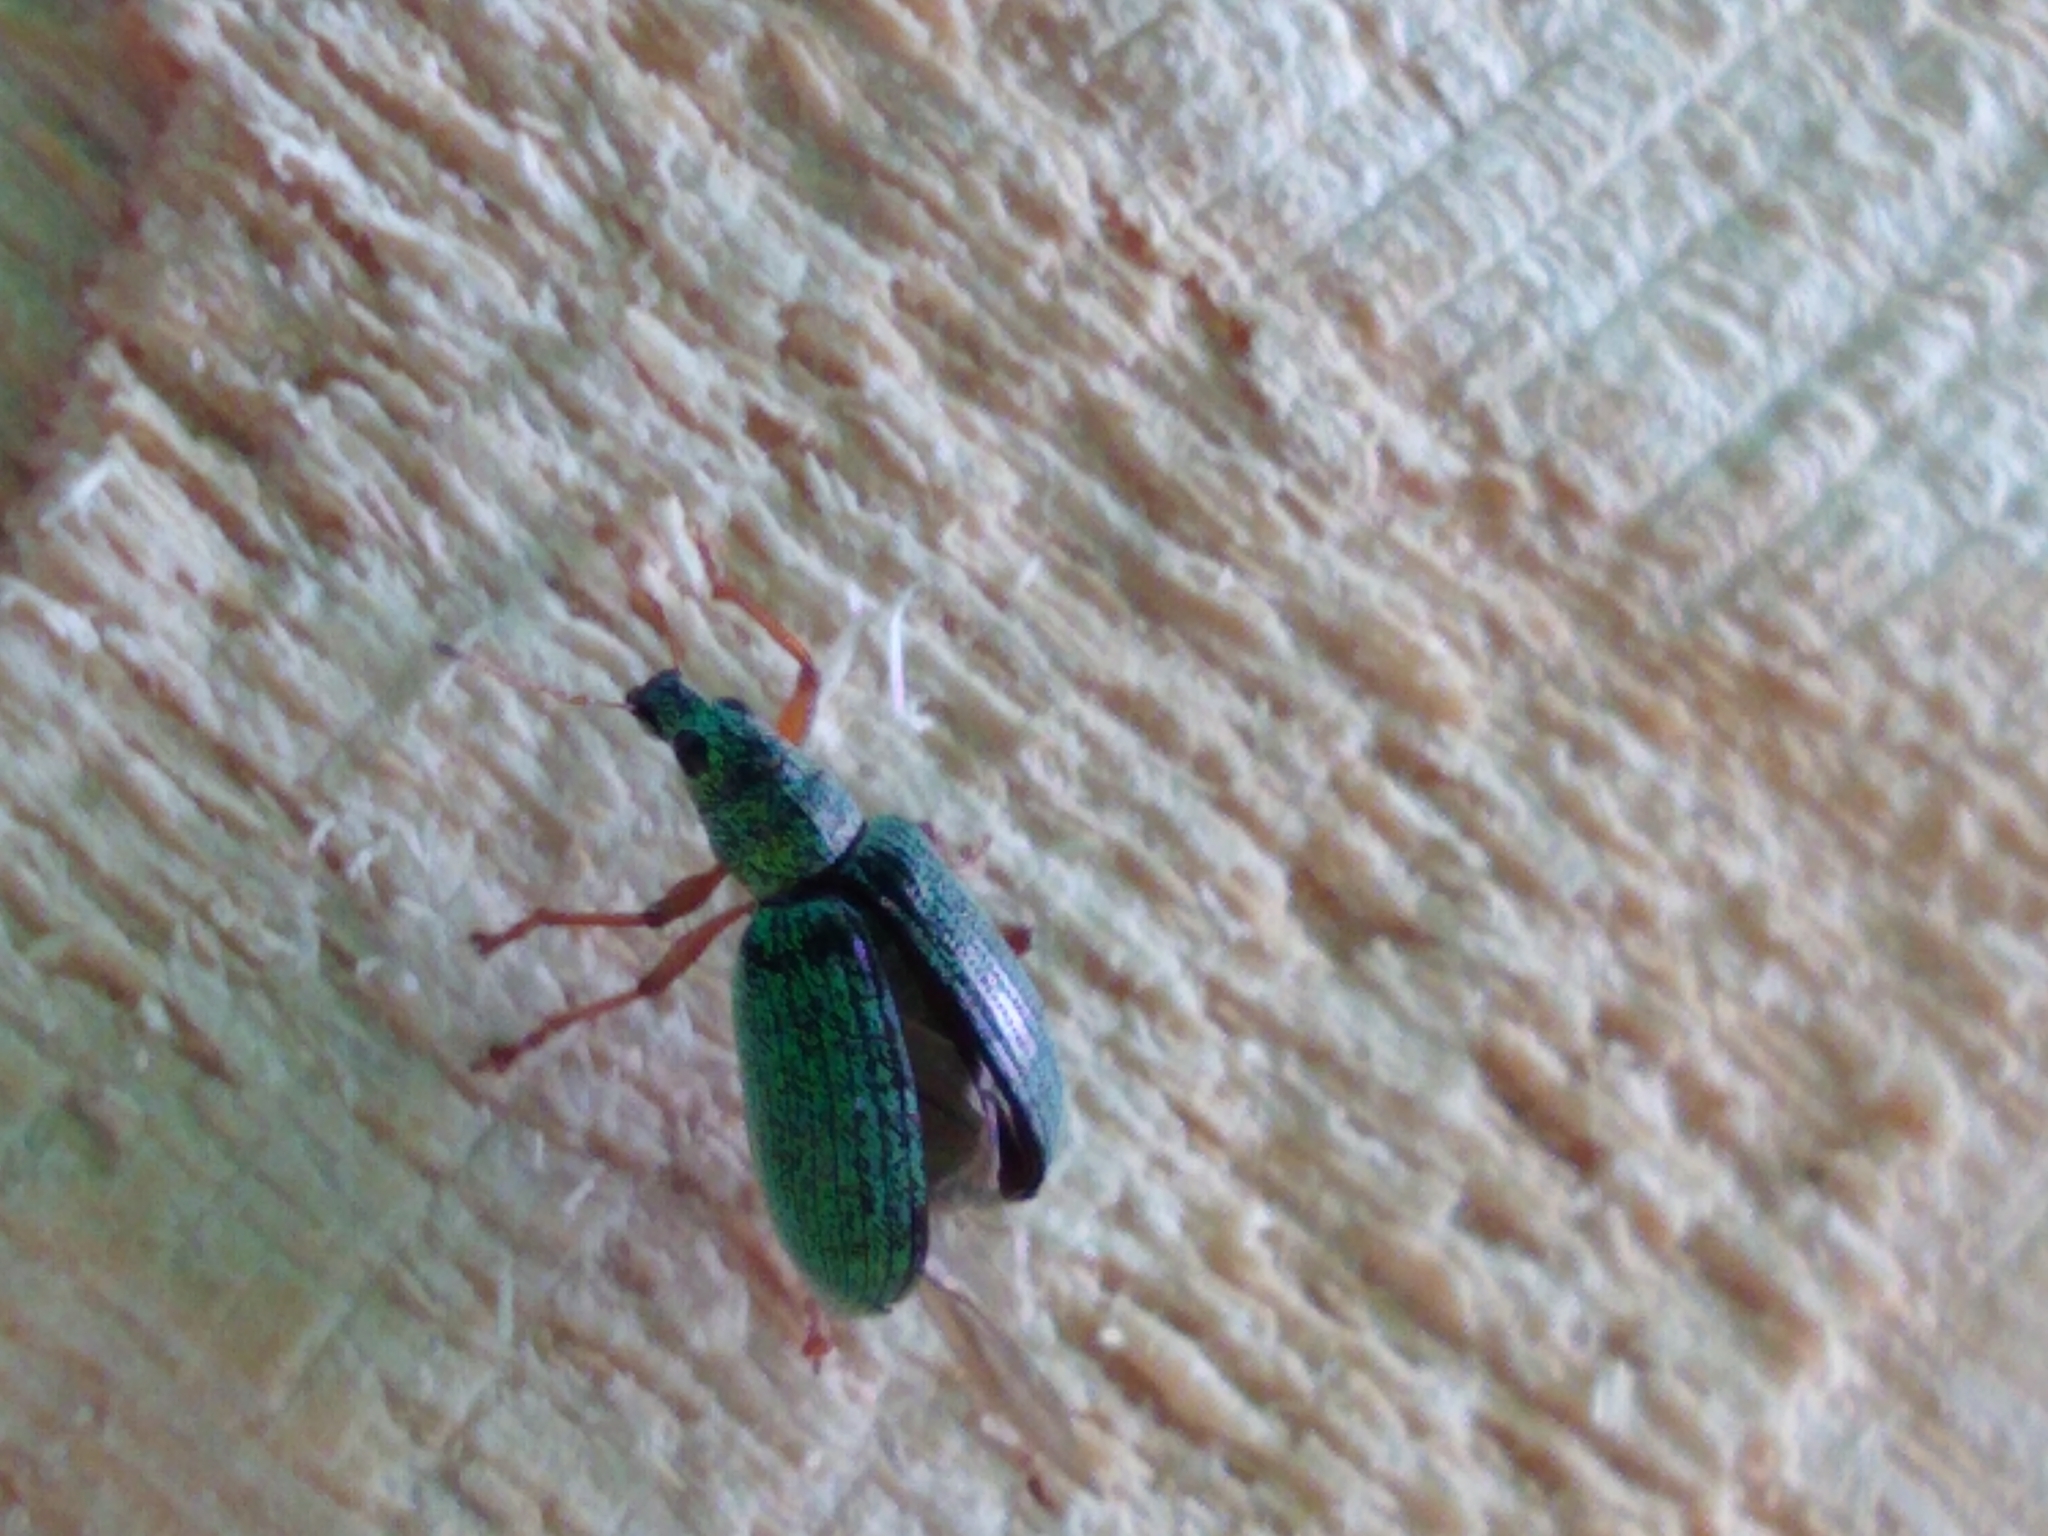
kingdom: Animalia
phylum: Arthropoda
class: Insecta
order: Coleoptera
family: Curculionidae
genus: Polydrusus
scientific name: Polydrusus formosus
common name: Weevil
